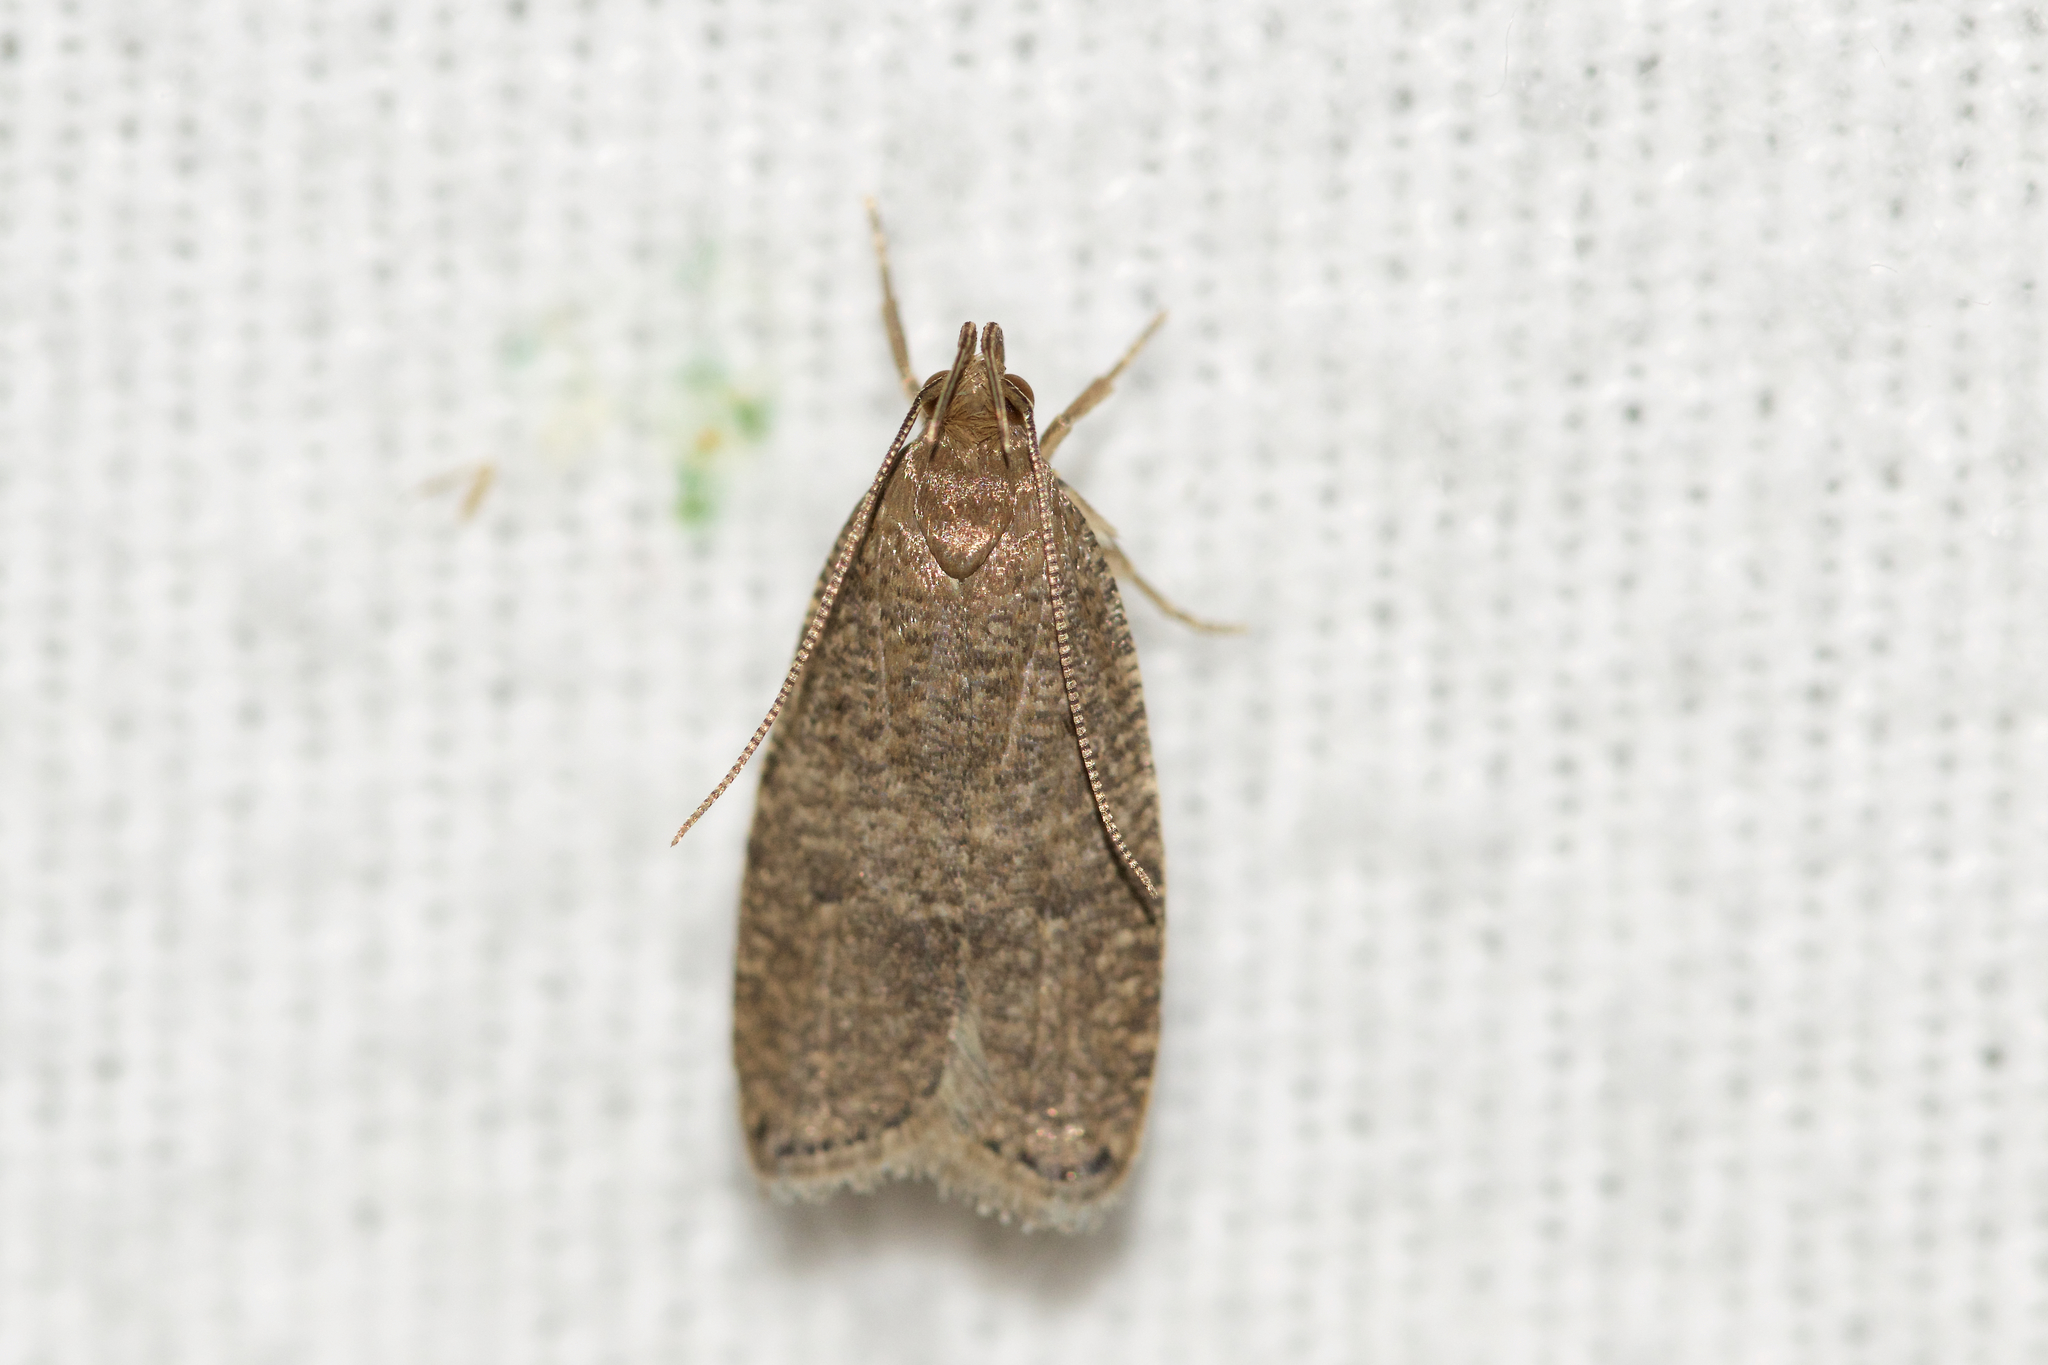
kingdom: Animalia
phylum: Arthropoda
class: Insecta
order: Lepidoptera
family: Depressariidae
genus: Psilocorsis
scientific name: Psilocorsis reflexella
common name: Dotted leaftier moth
